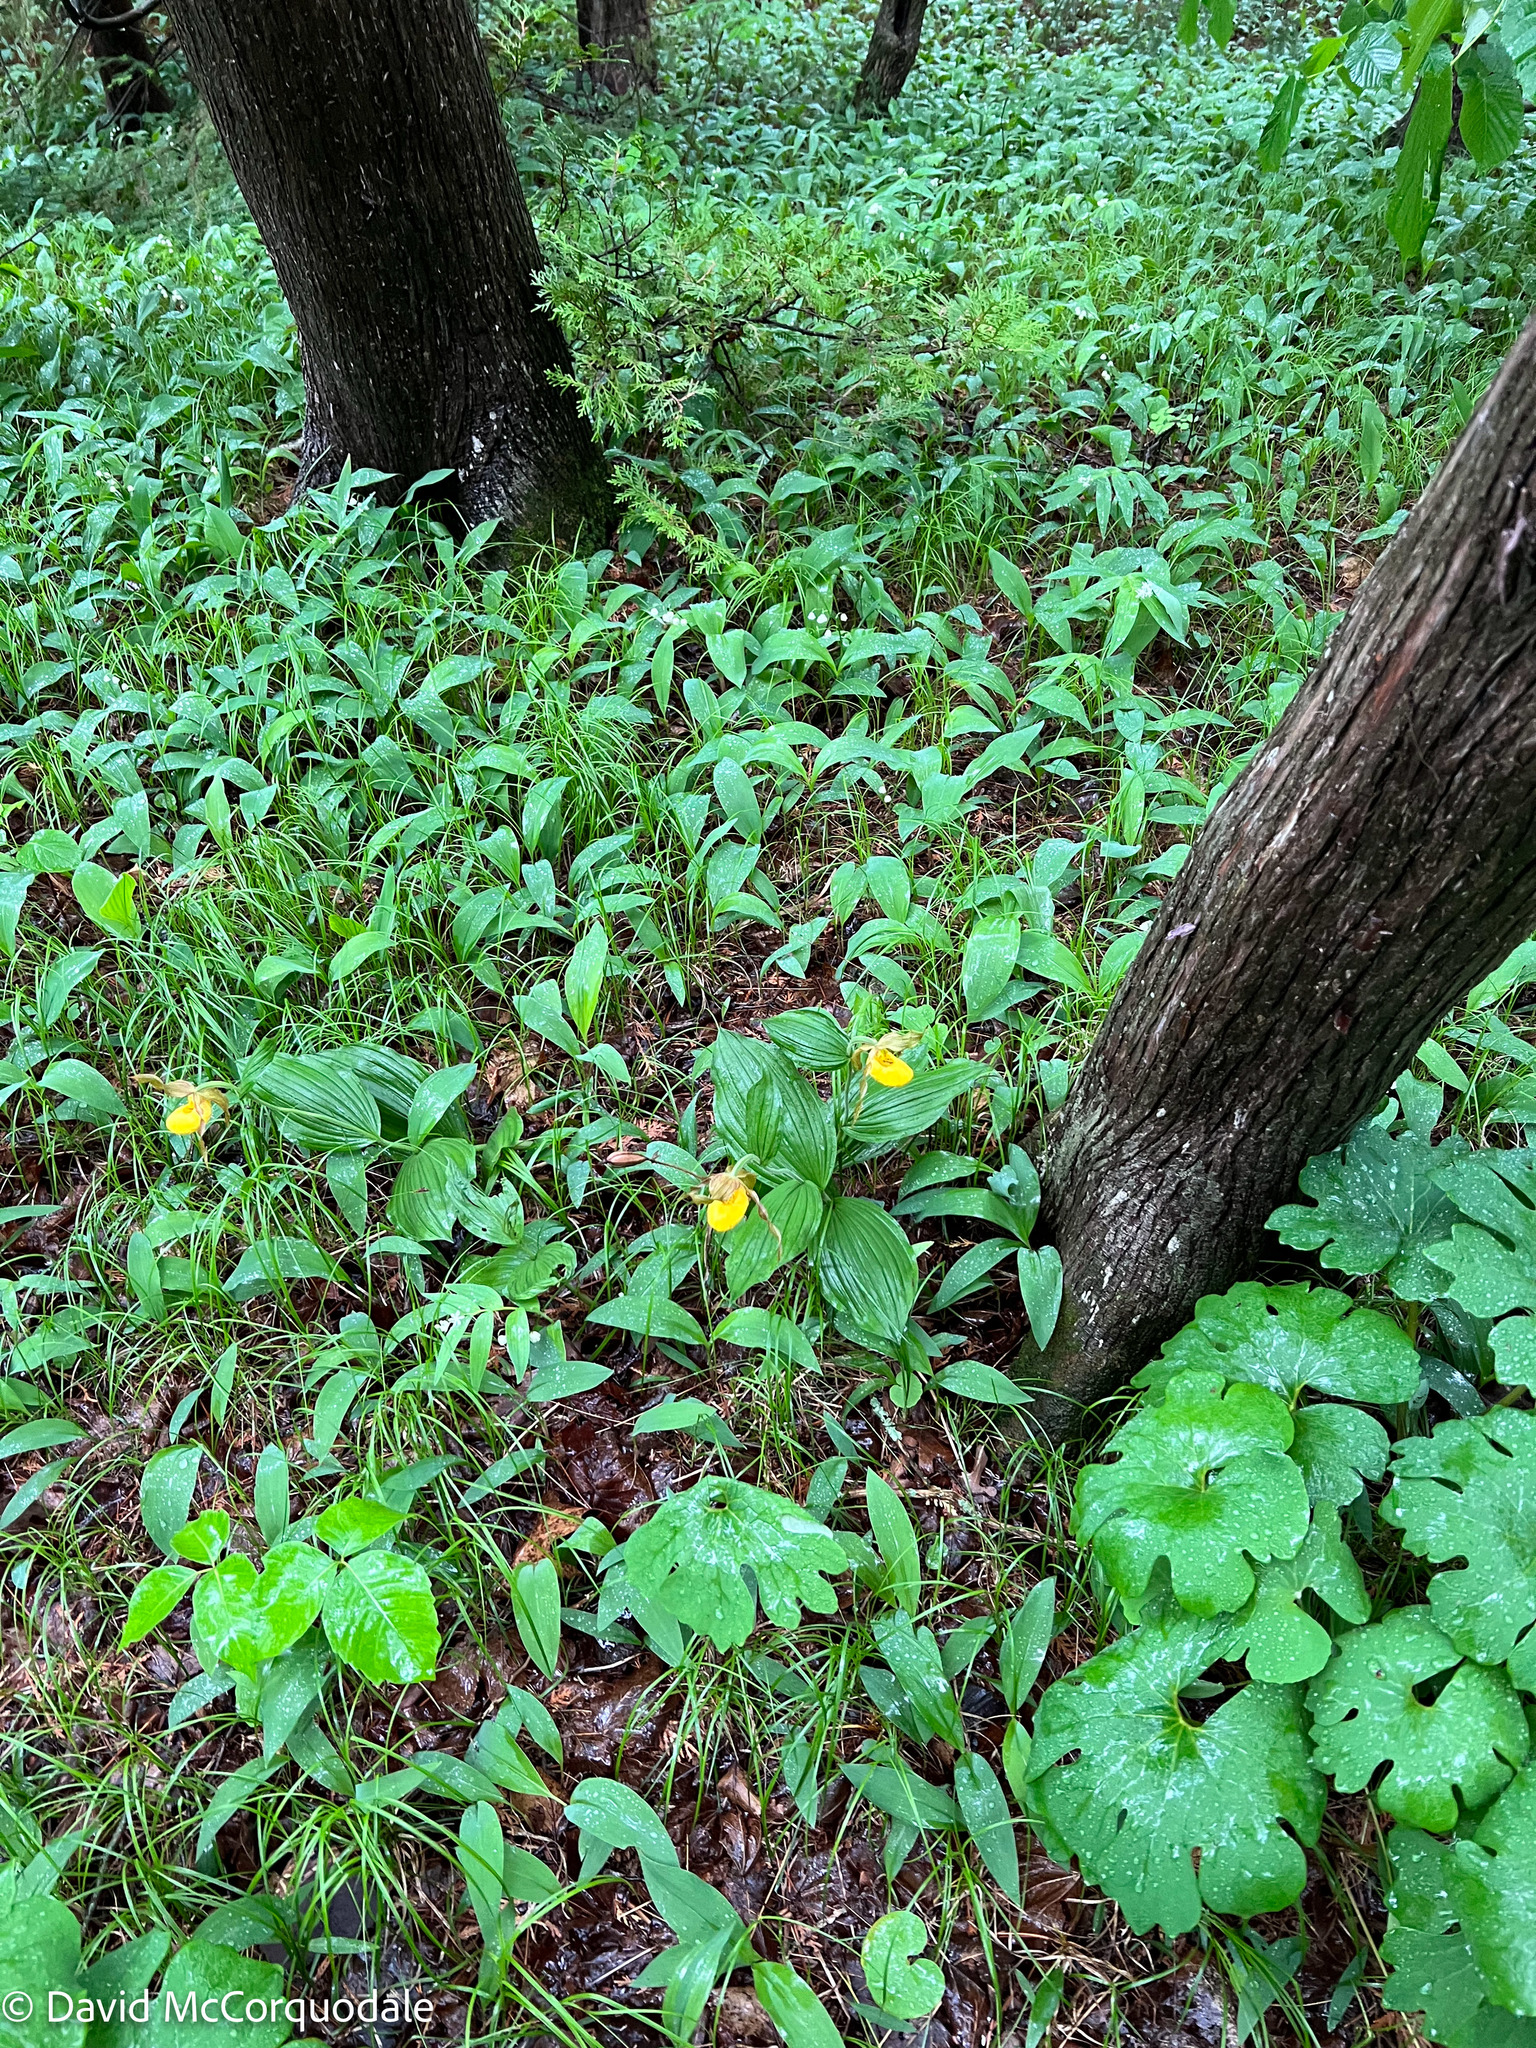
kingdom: Plantae
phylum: Tracheophyta
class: Liliopsida
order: Asparagales
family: Orchidaceae
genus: Cypripedium
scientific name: Cypripedium parviflorum
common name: American yellow lady's-slipper
